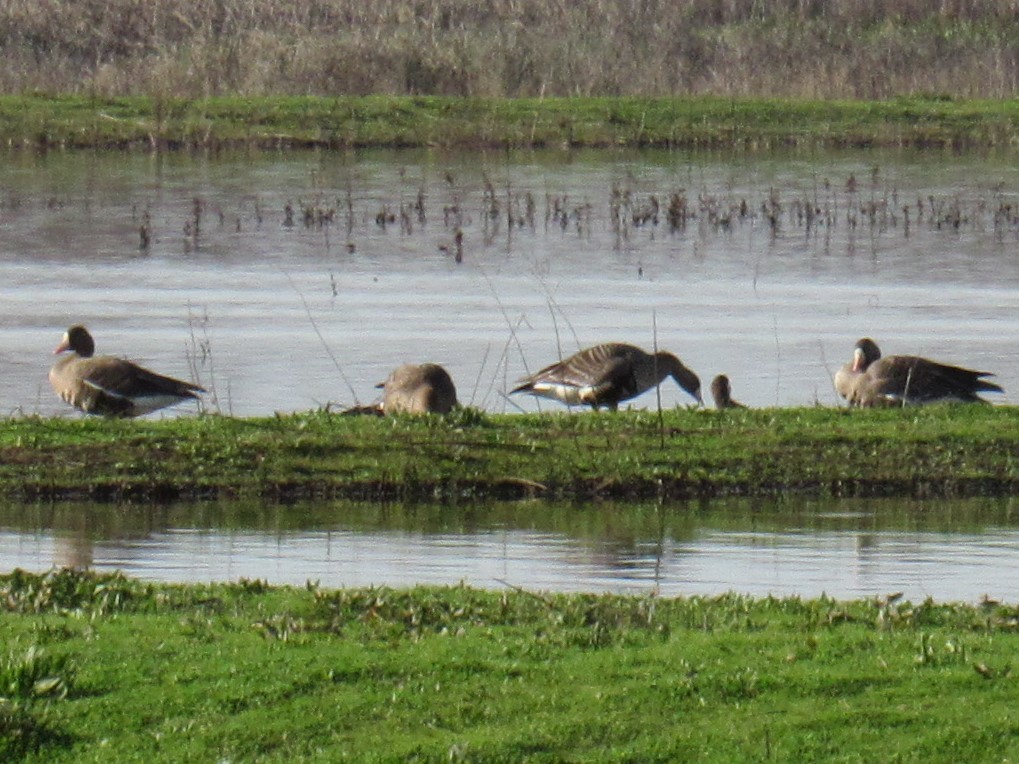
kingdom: Animalia
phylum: Chordata
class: Aves
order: Anseriformes
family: Anatidae
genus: Anser
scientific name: Anser albifrons
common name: Greater white-fronted goose
